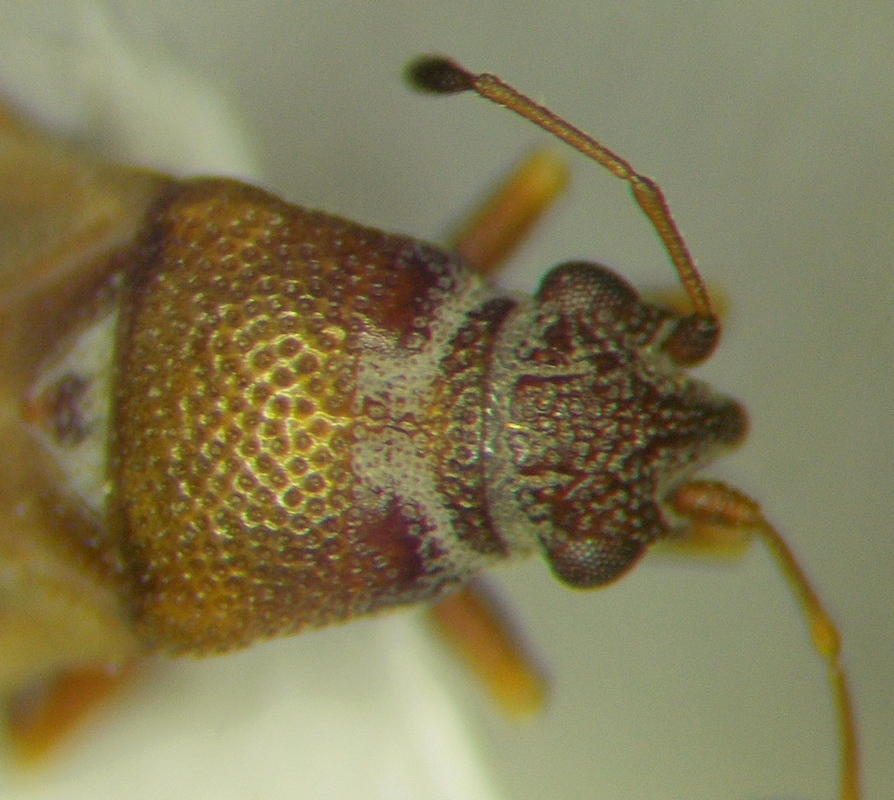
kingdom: Animalia
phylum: Arthropoda
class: Insecta
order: Hemiptera
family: Cymidae
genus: Cymus
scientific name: Cymus claviculus
